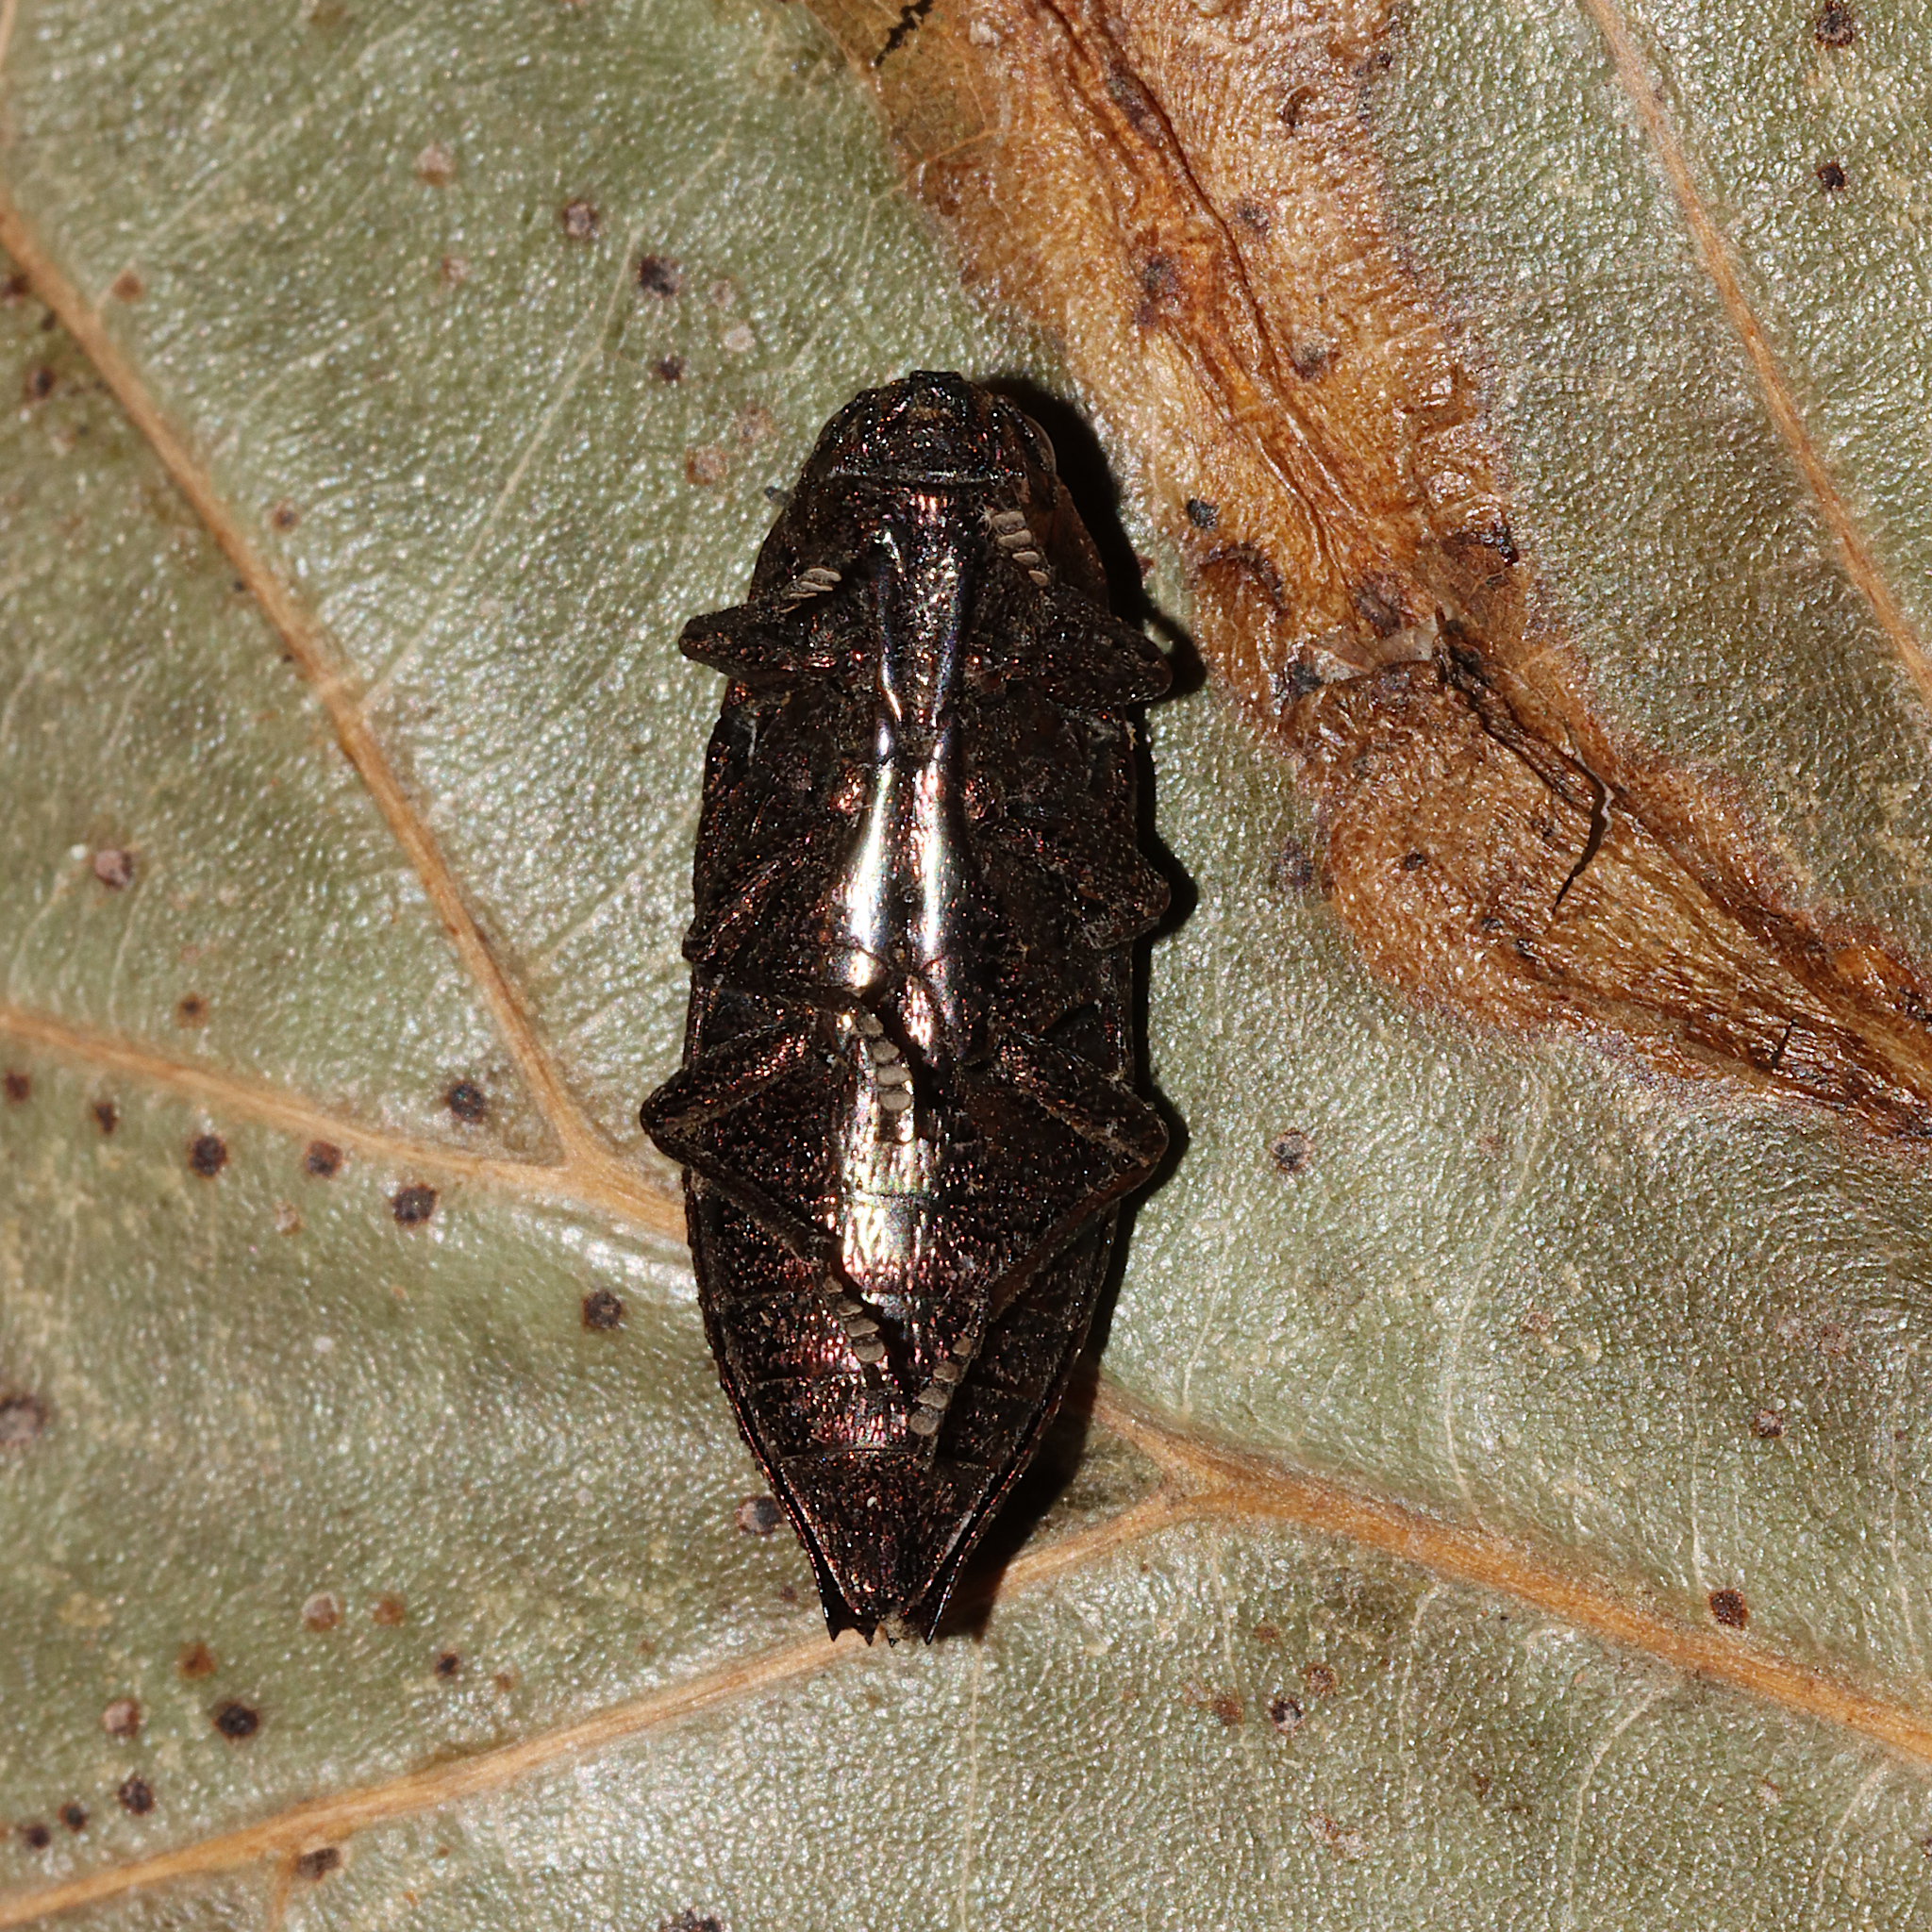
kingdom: Animalia
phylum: Arthropoda
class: Insecta
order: Coleoptera
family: Buprestidae
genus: Dicerca
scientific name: Dicerca obscura
